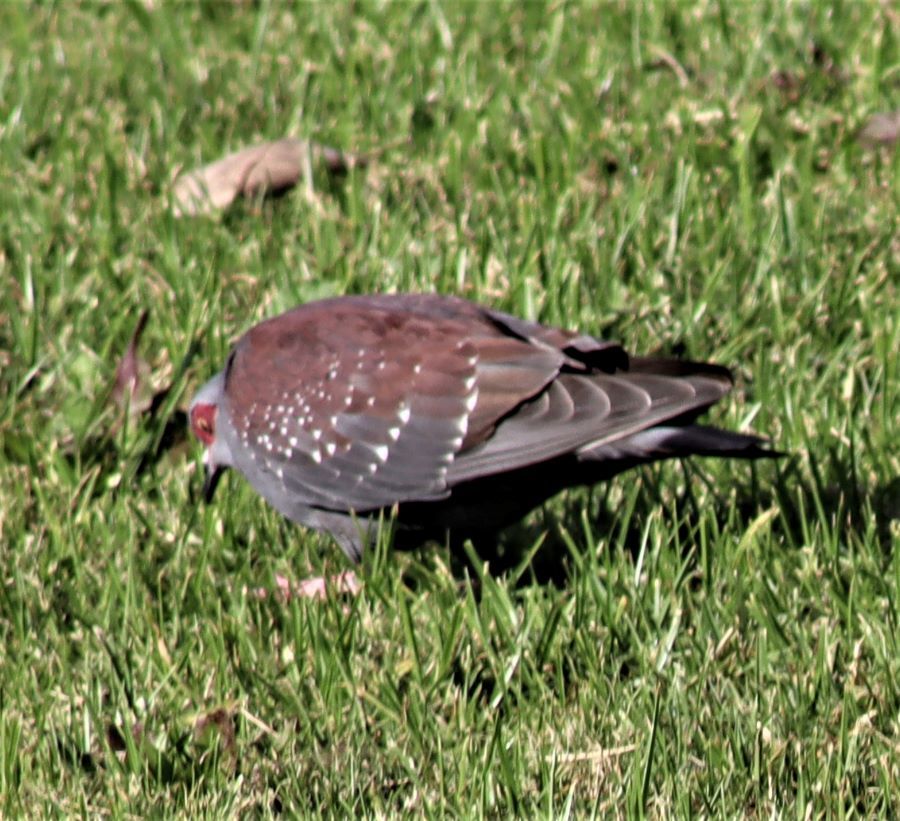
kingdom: Animalia
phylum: Chordata
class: Aves
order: Columbiformes
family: Columbidae
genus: Columba
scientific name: Columba guinea
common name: Speckled pigeon
